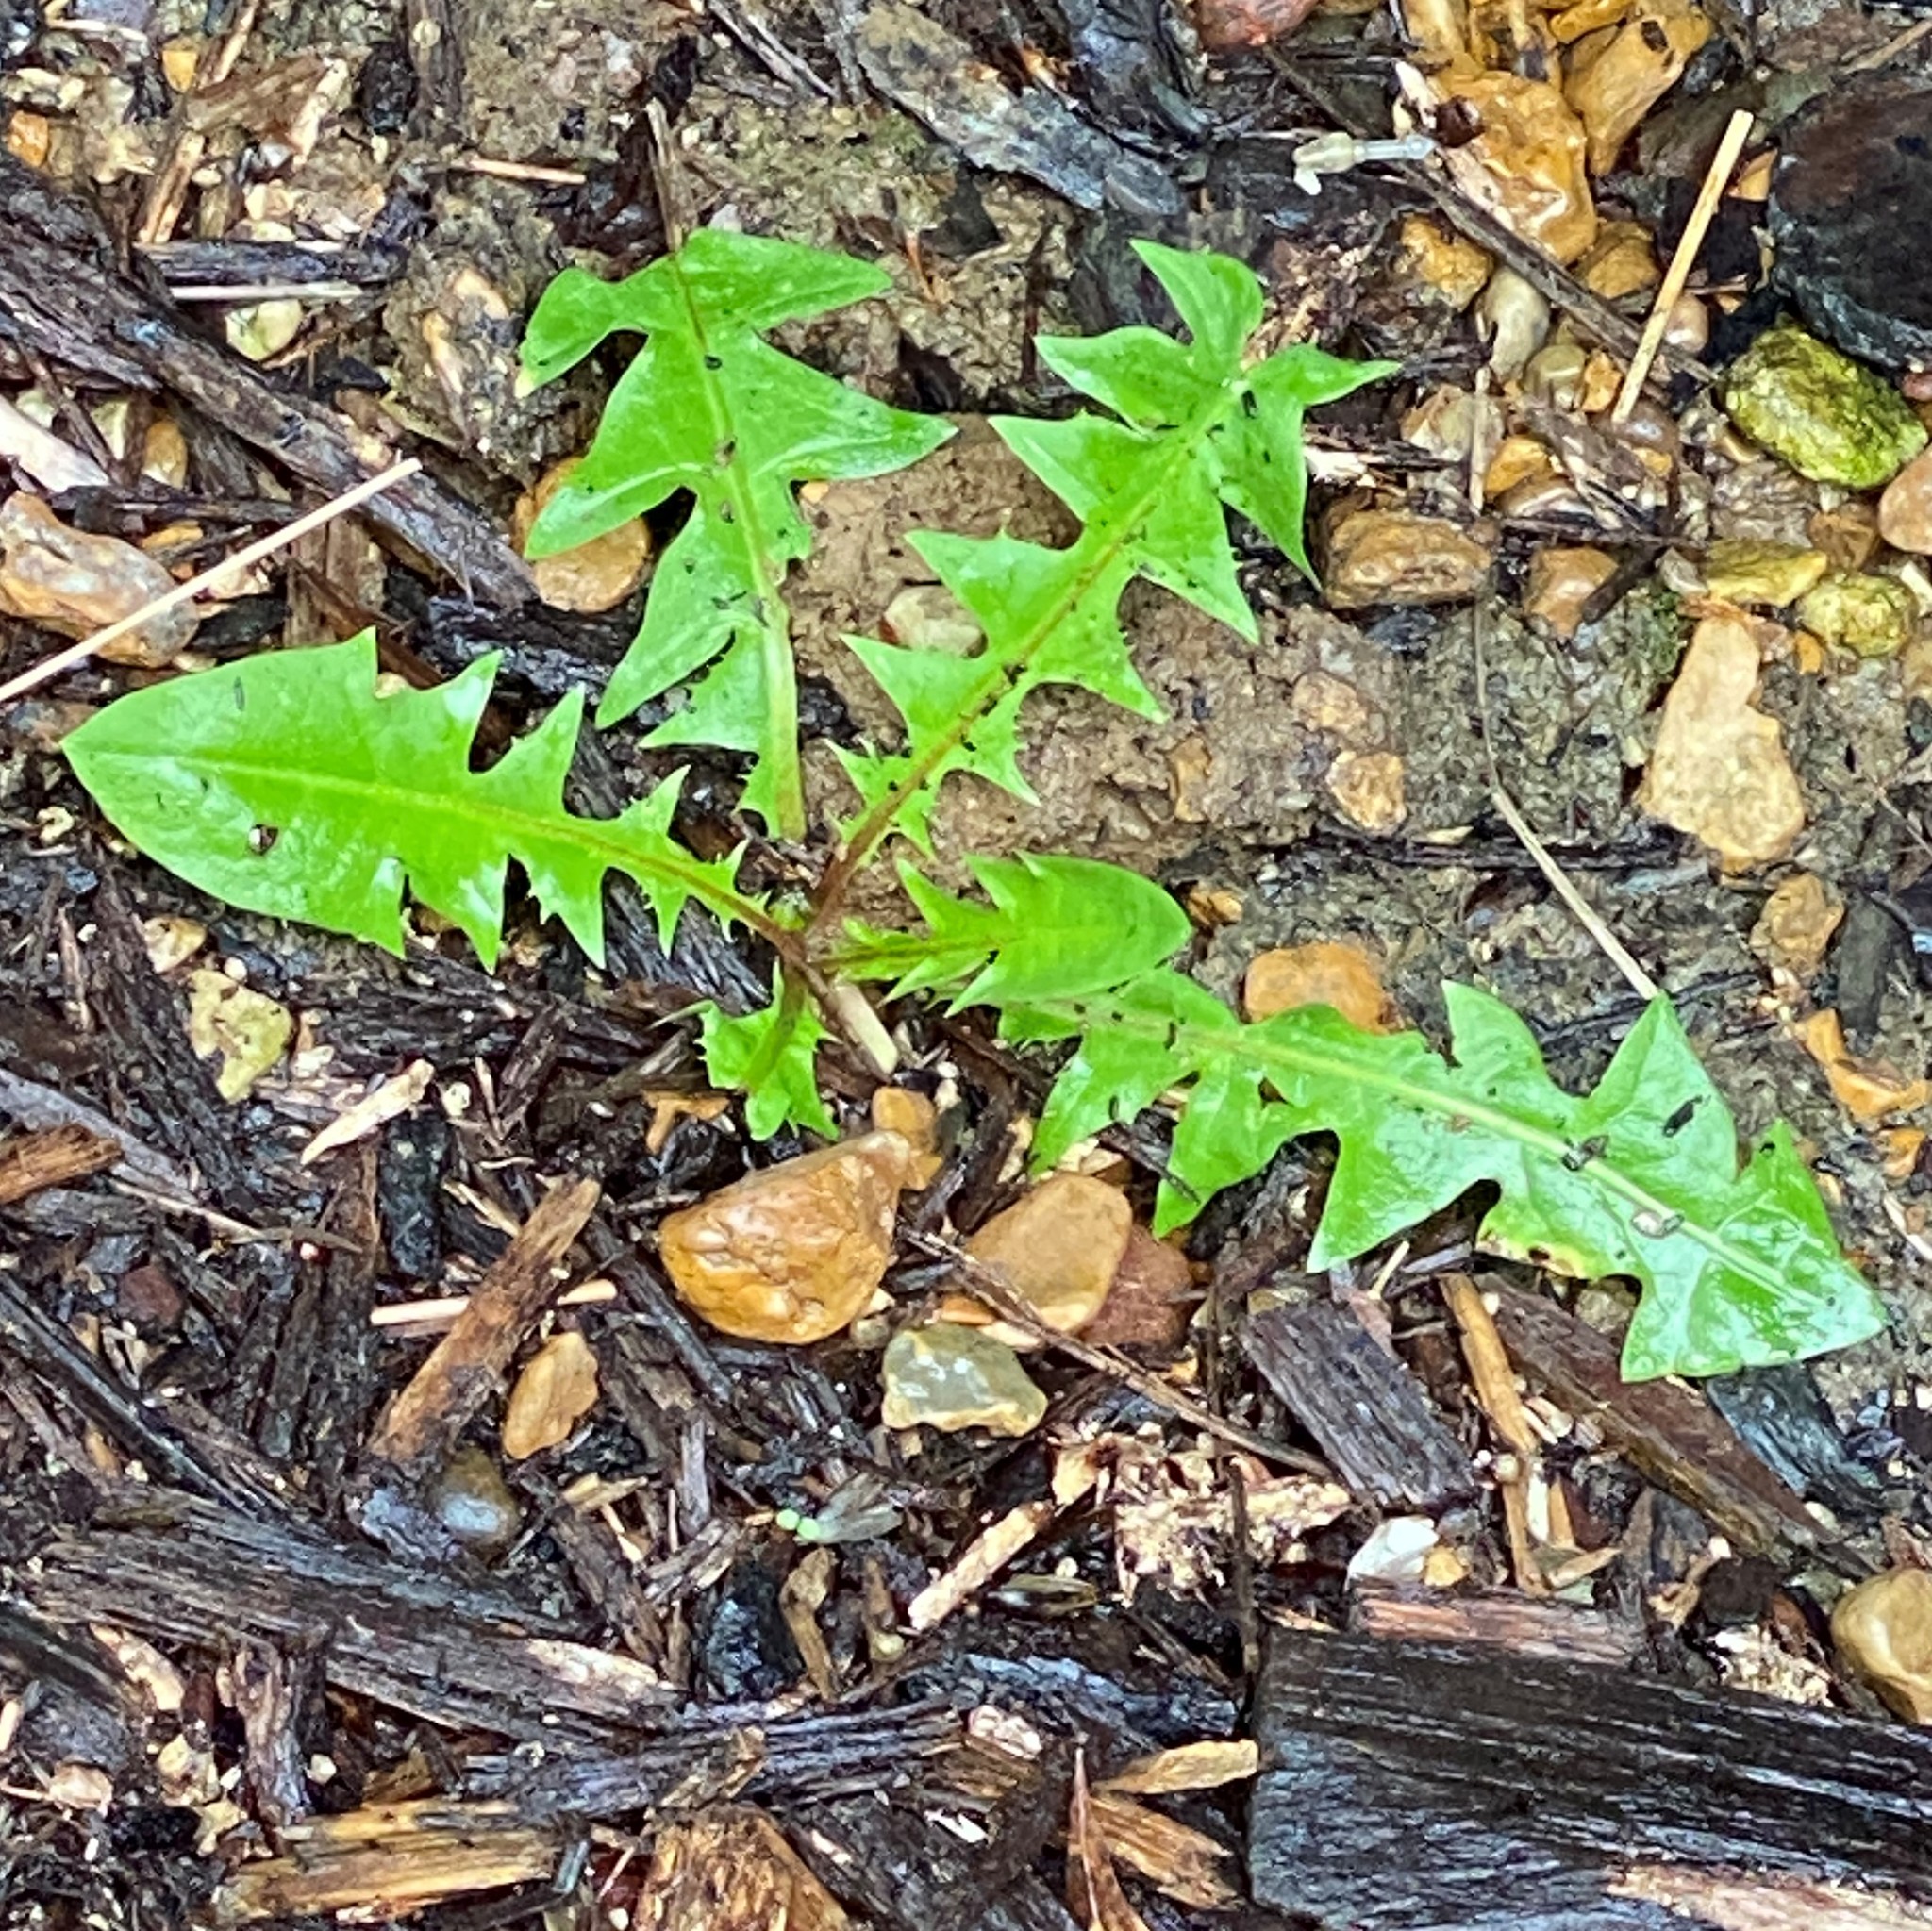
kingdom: Plantae
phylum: Tracheophyta
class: Magnoliopsida
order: Asterales
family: Asteraceae
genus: Taraxacum
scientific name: Taraxacum officinale
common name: Common dandelion
